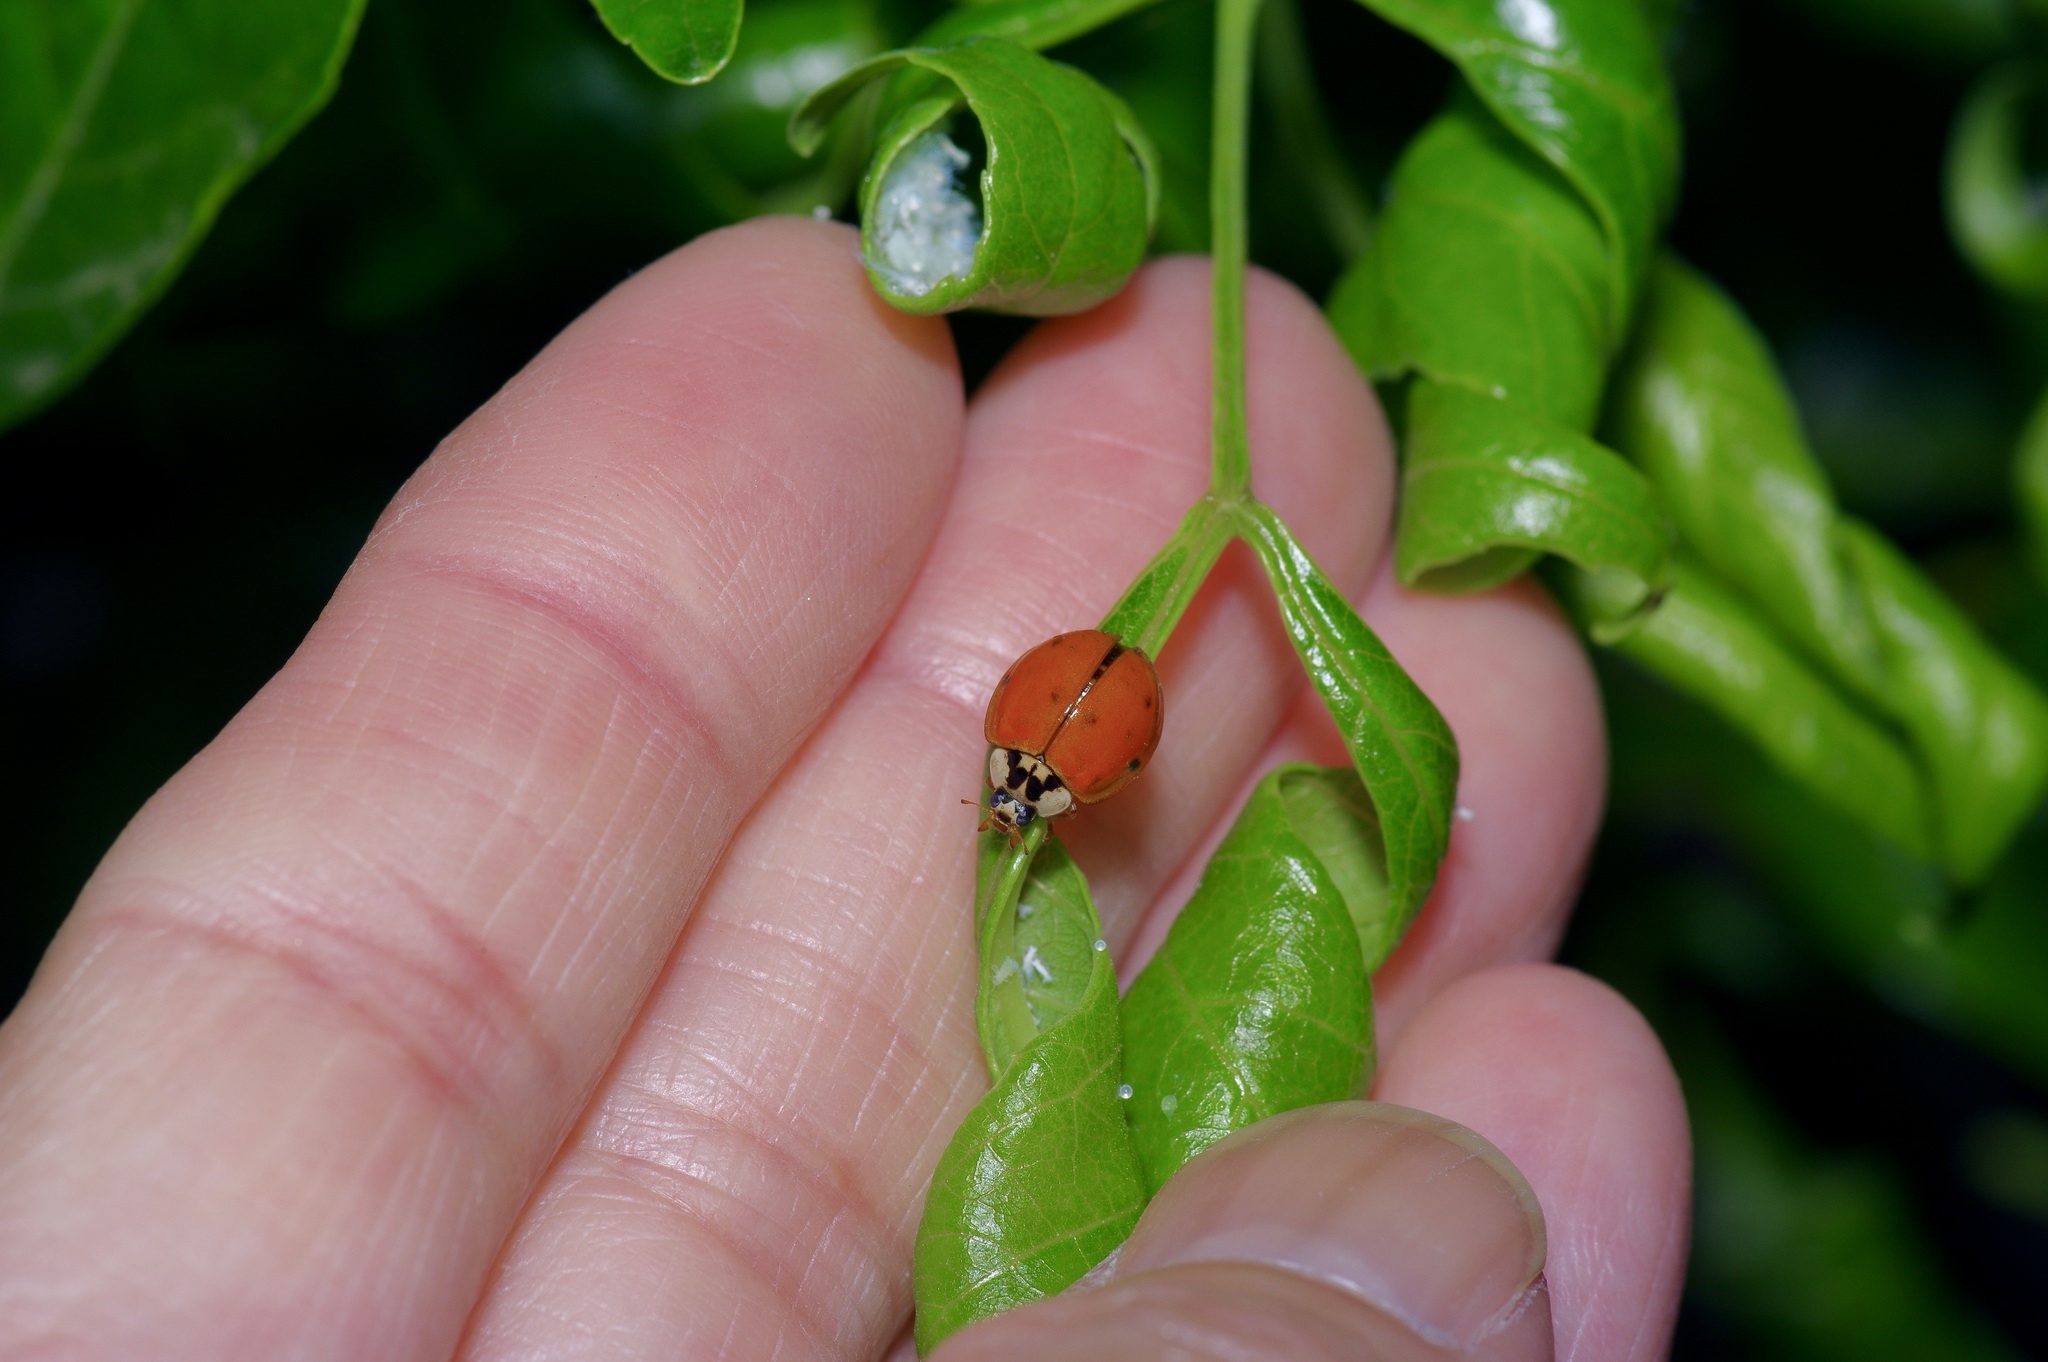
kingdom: Animalia
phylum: Arthropoda
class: Insecta
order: Coleoptera
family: Coccinellidae
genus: Harmonia
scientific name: Harmonia axyridis
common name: Harlequin ladybird
